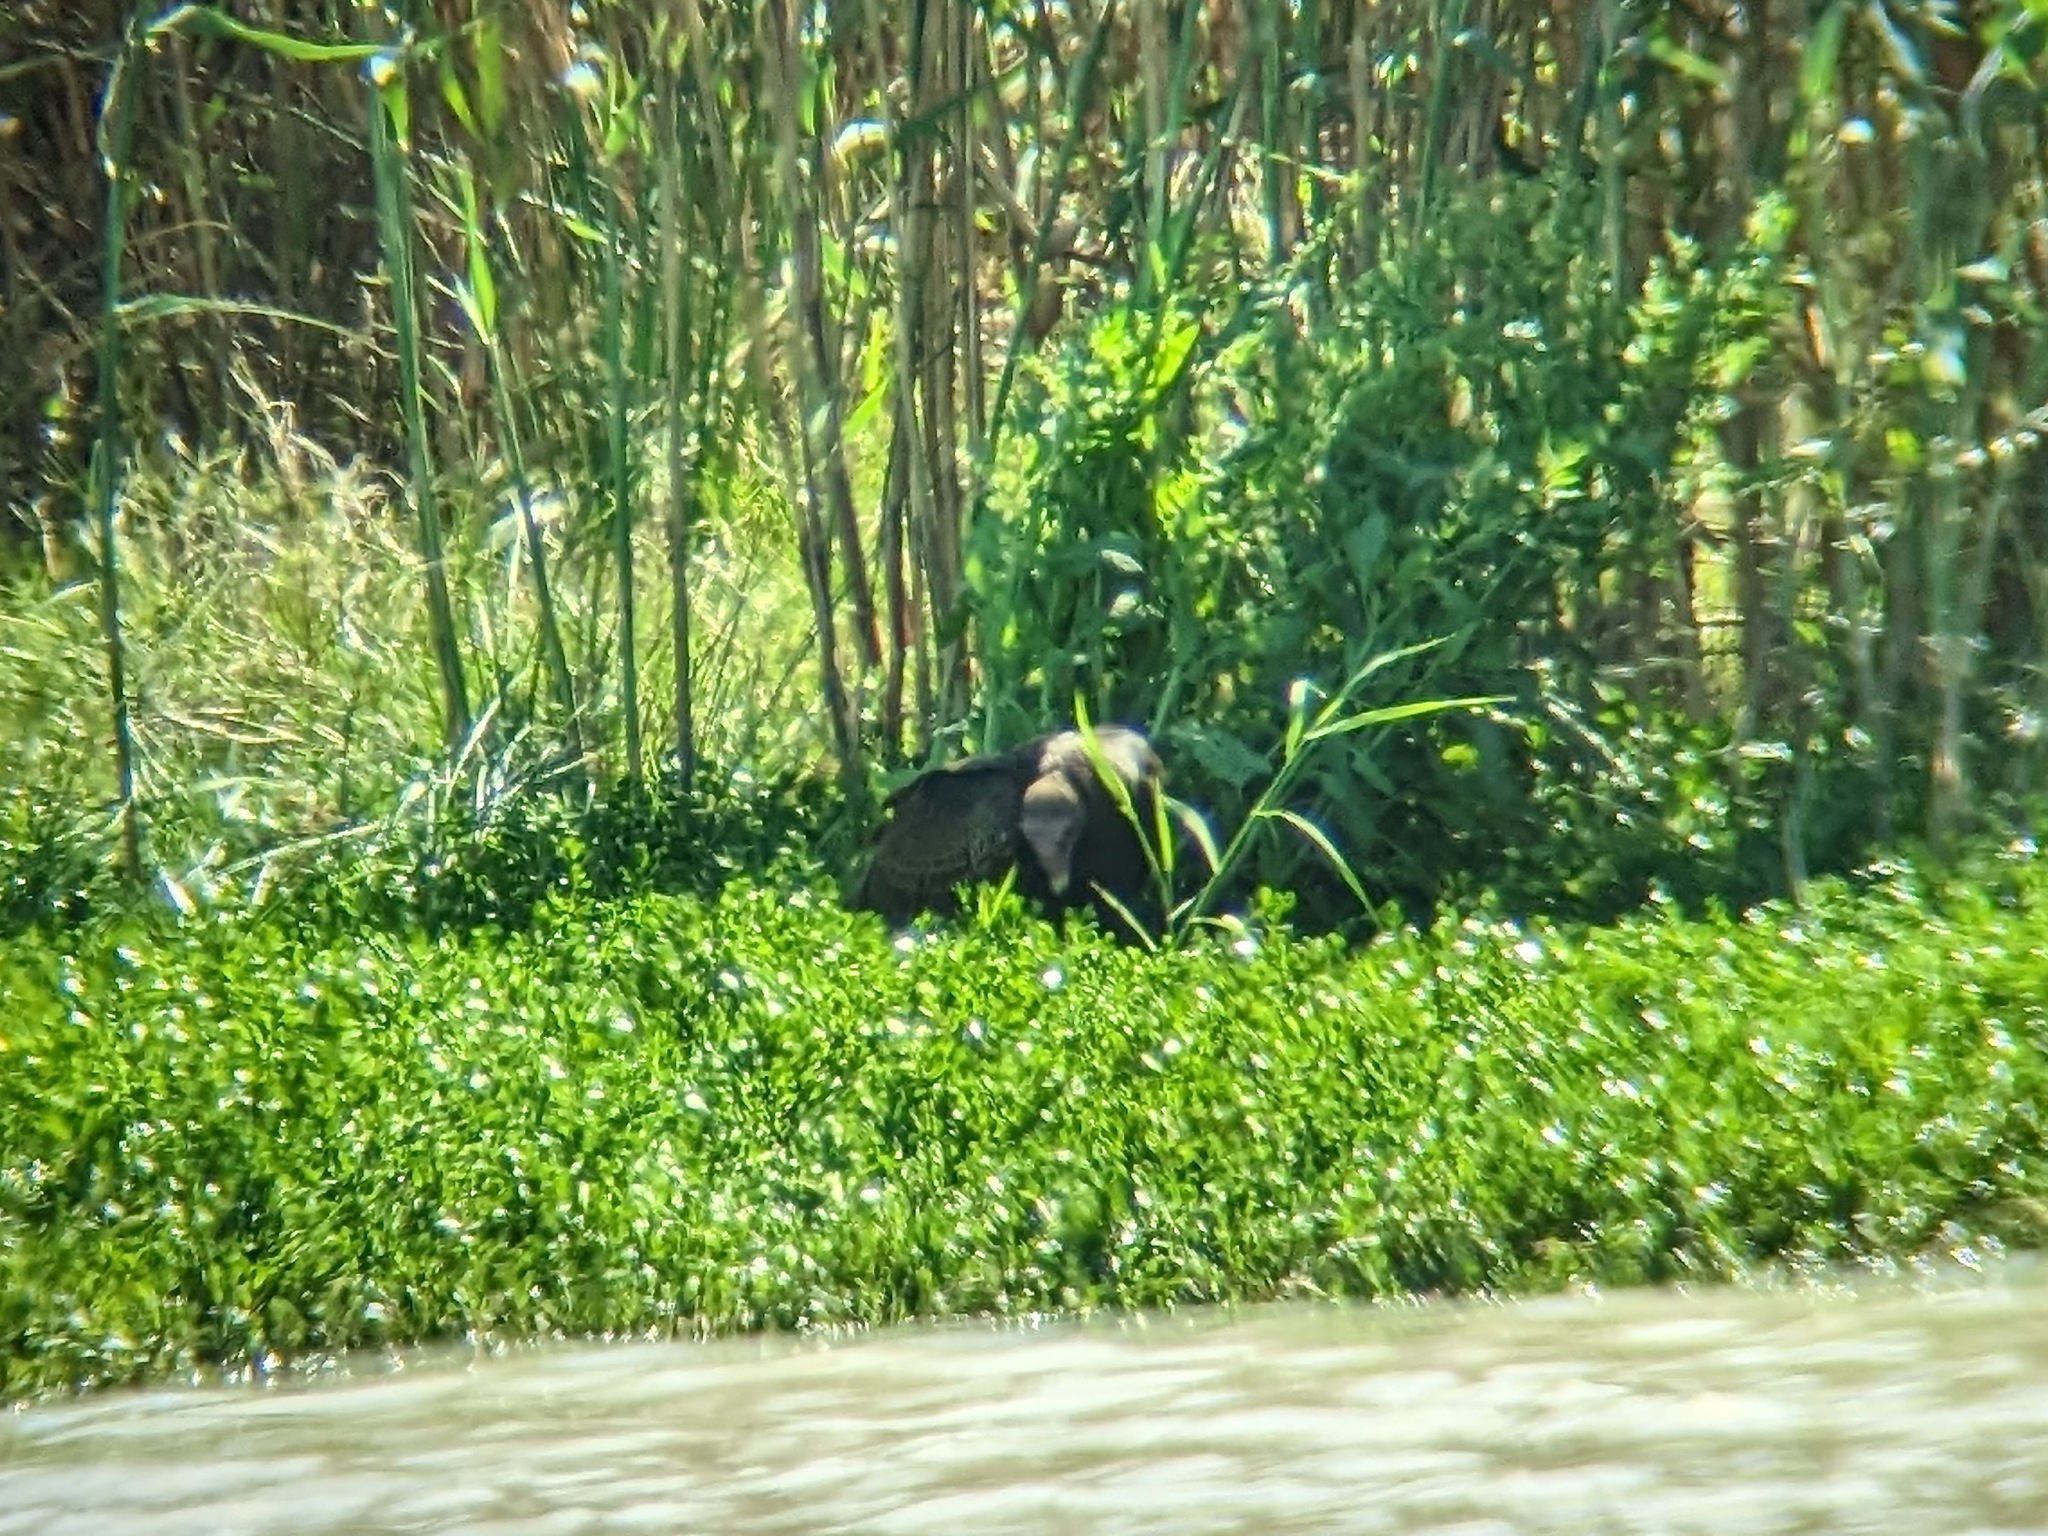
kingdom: Animalia
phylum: Chordata
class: Aves
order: Accipitriformes
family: Cathartidae
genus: Cathartes
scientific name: Cathartes aura
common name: Turkey vulture
